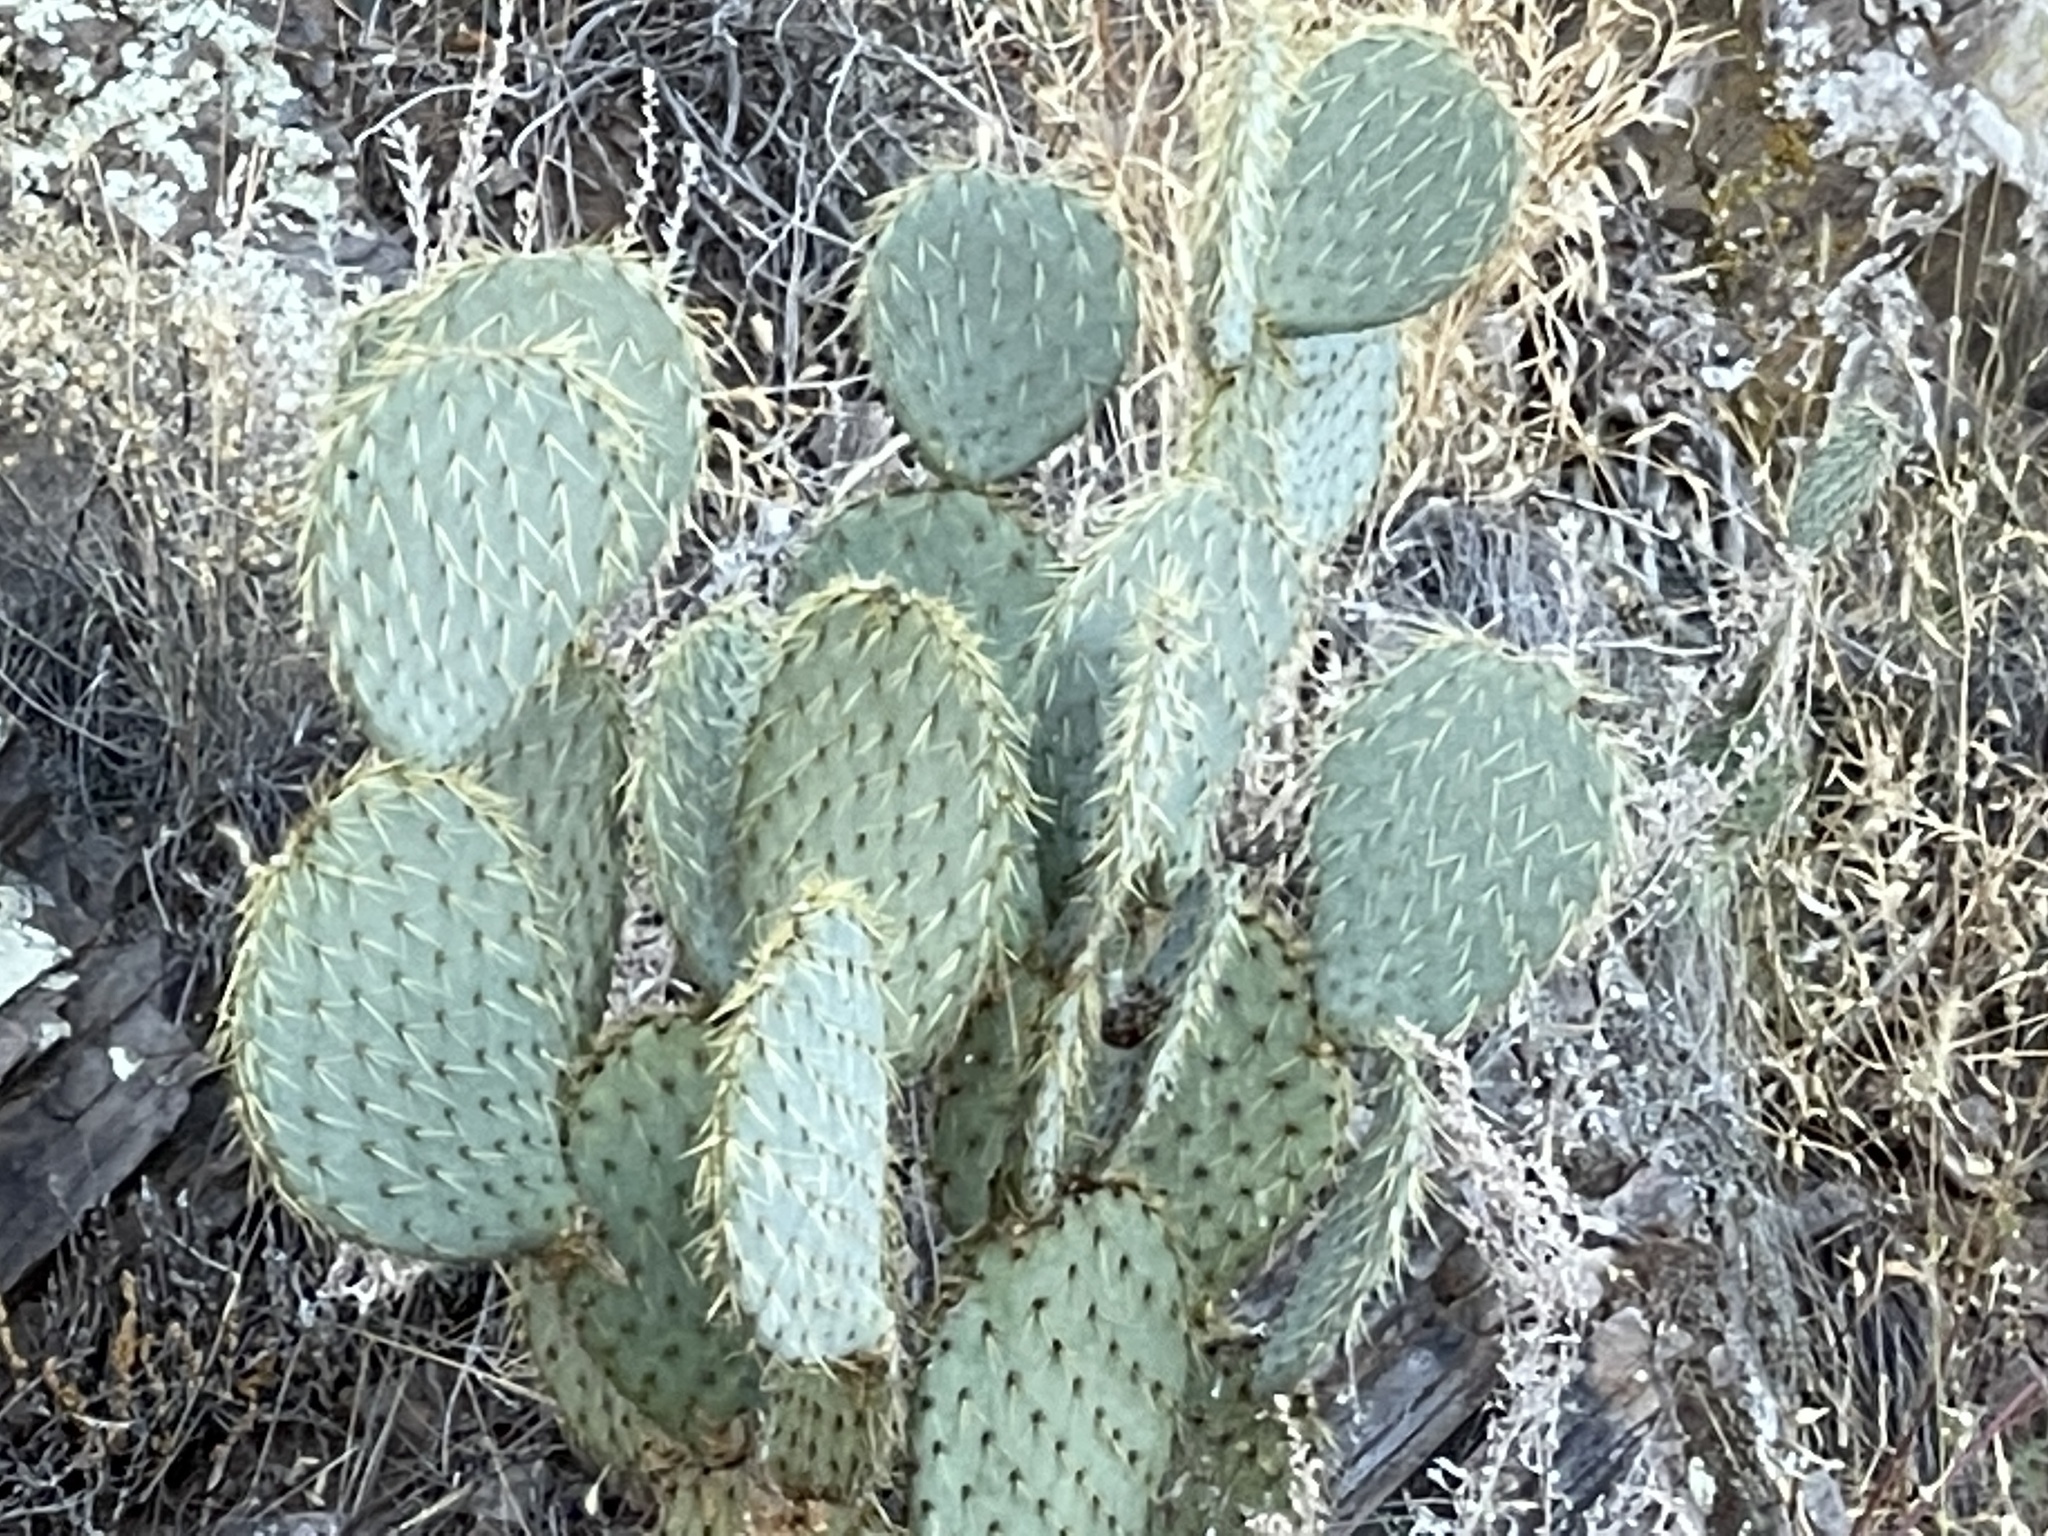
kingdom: Plantae
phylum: Tracheophyta
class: Magnoliopsida
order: Caryophyllales
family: Cactaceae
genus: Opuntia
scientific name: Opuntia chlorotica
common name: Dollar-joint prickly-pear
